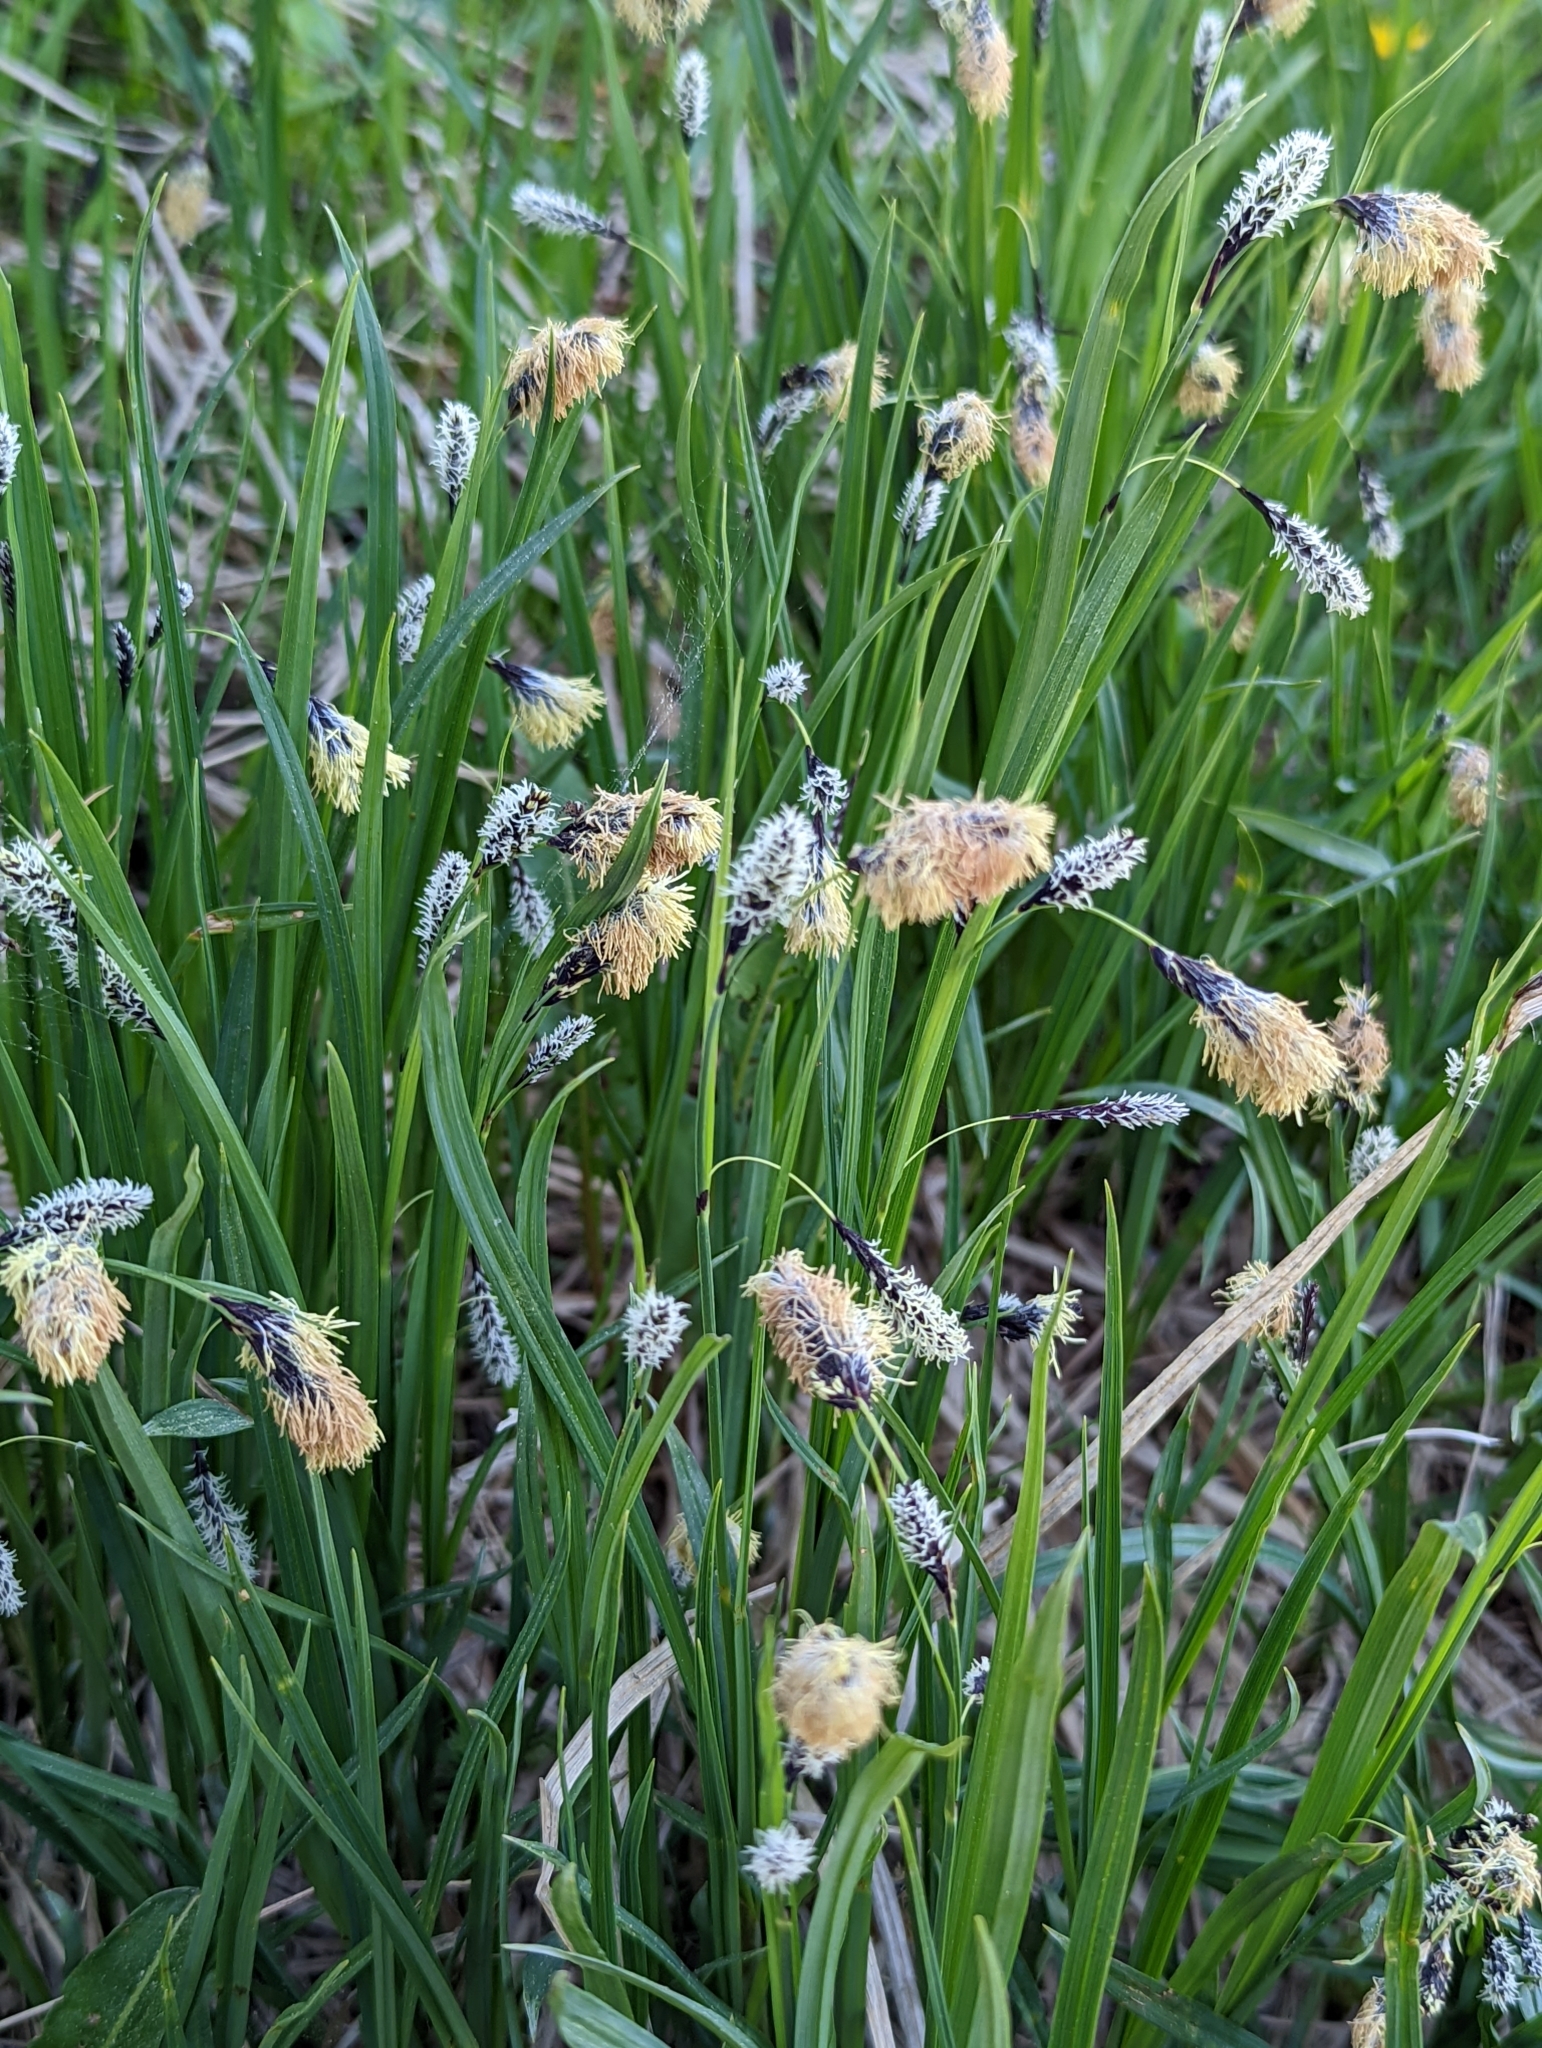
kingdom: Plantae
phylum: Tracheophyta
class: Liliopsida
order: Poales
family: Cyperaceae
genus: Carex
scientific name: Carex spectabilis
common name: Northwestern showy sedge
